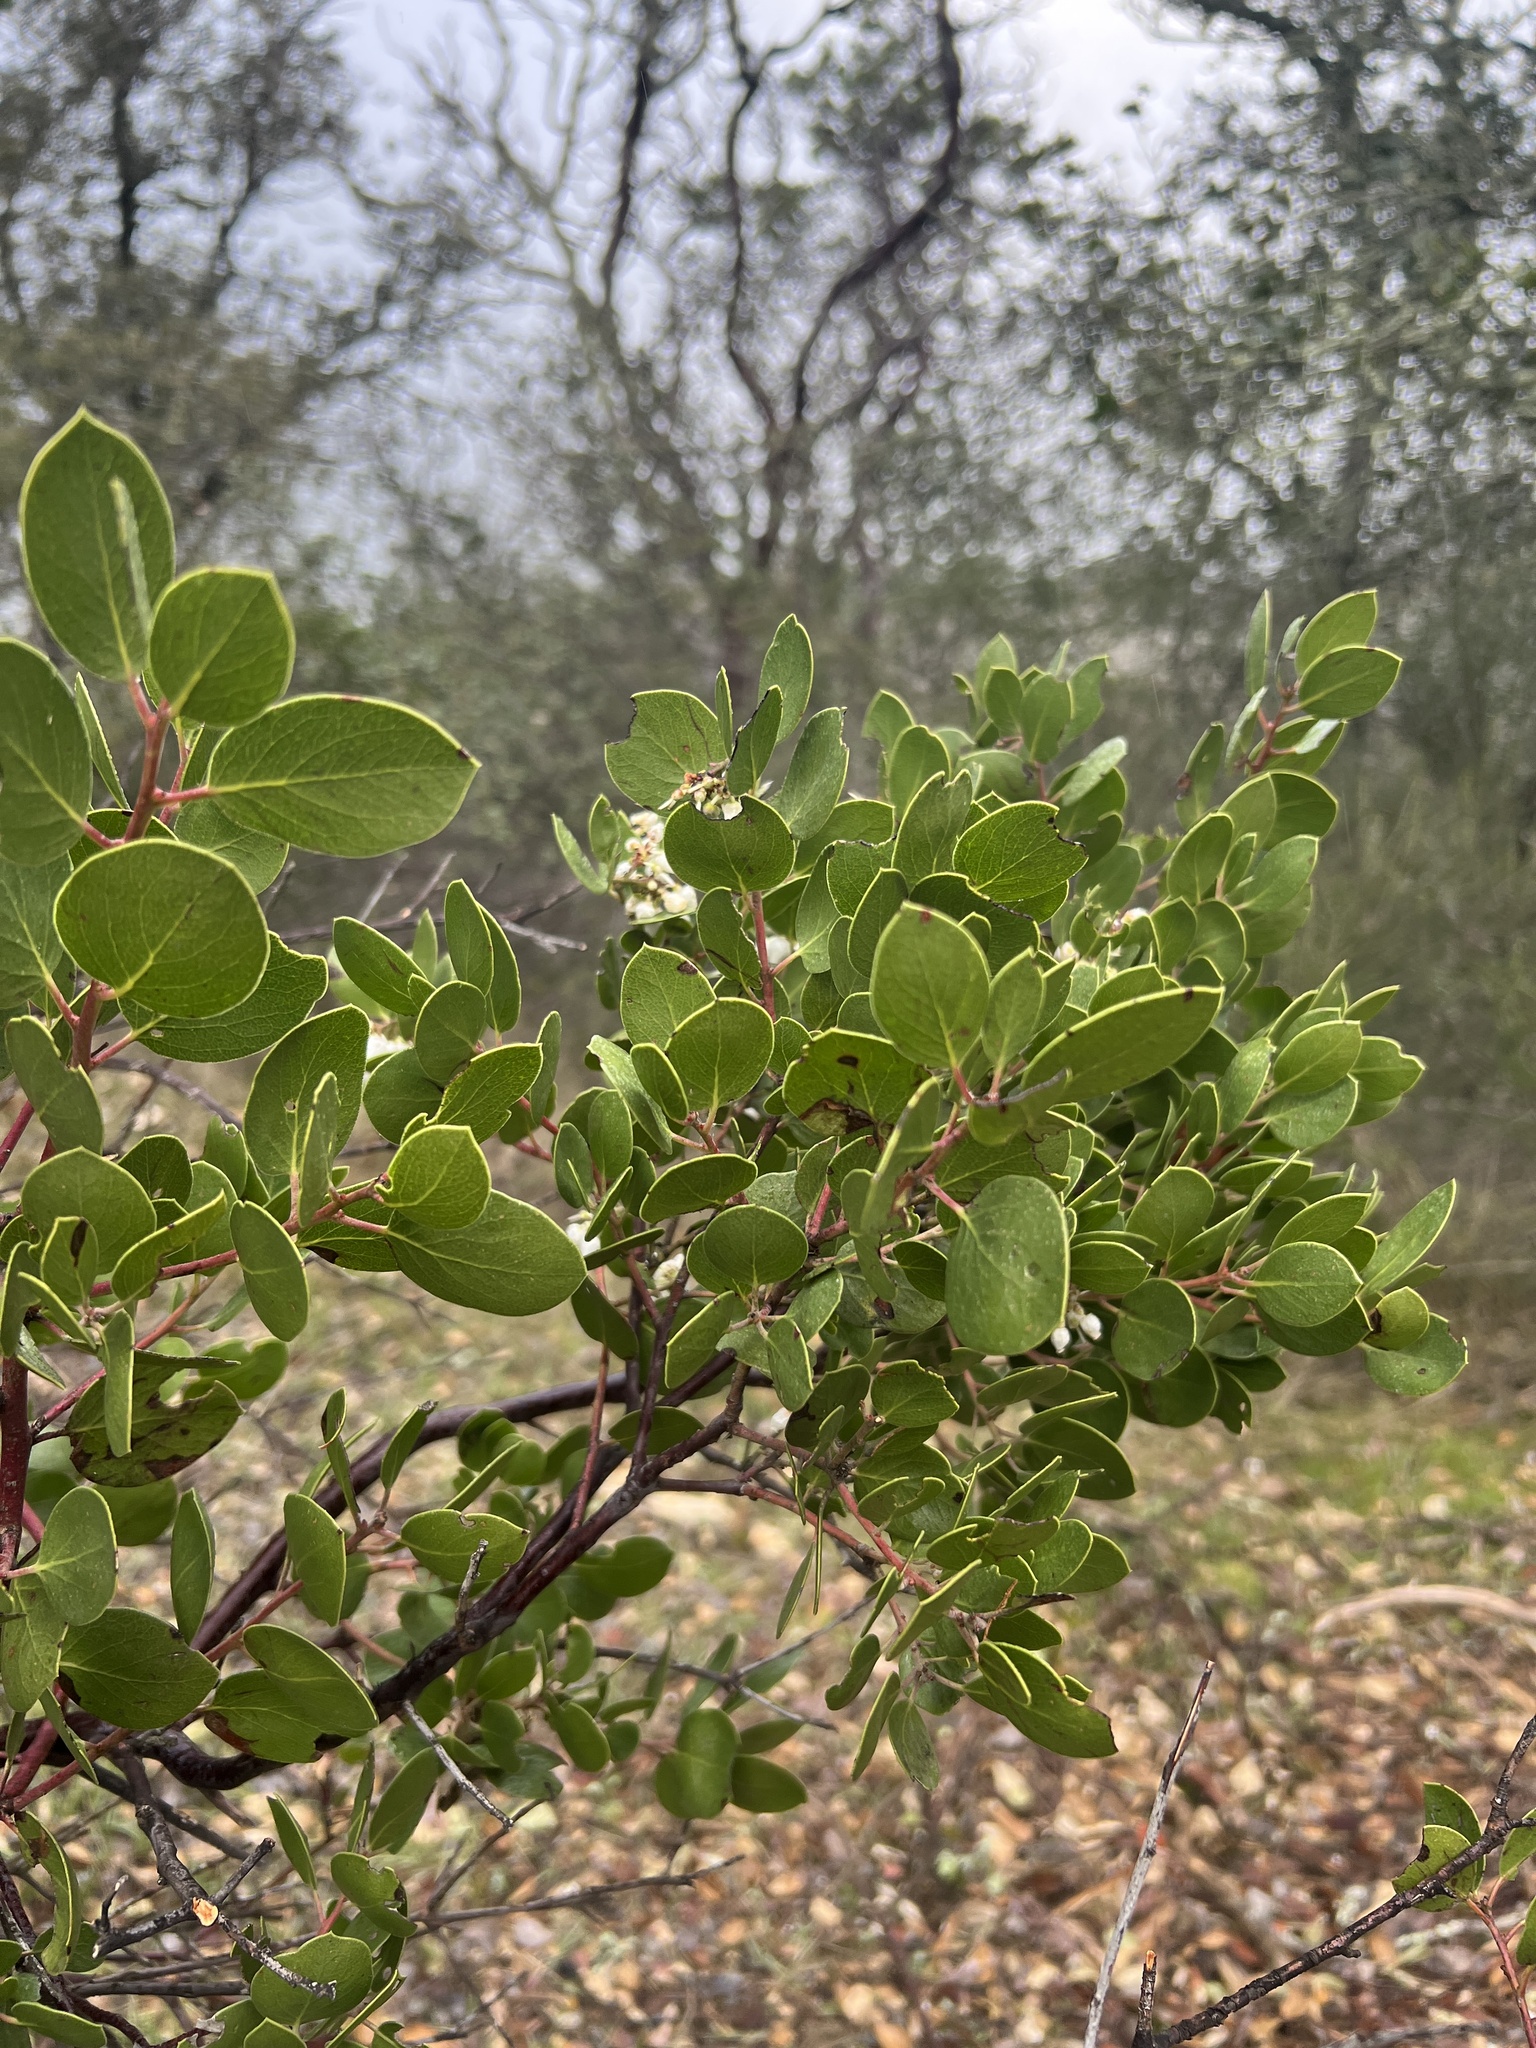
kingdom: Plantae
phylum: Tracheophyta
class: Magnoliopsida
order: Ericales
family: Ericaceae
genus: Arctostaphylos
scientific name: Arctostaphylos manzanita
